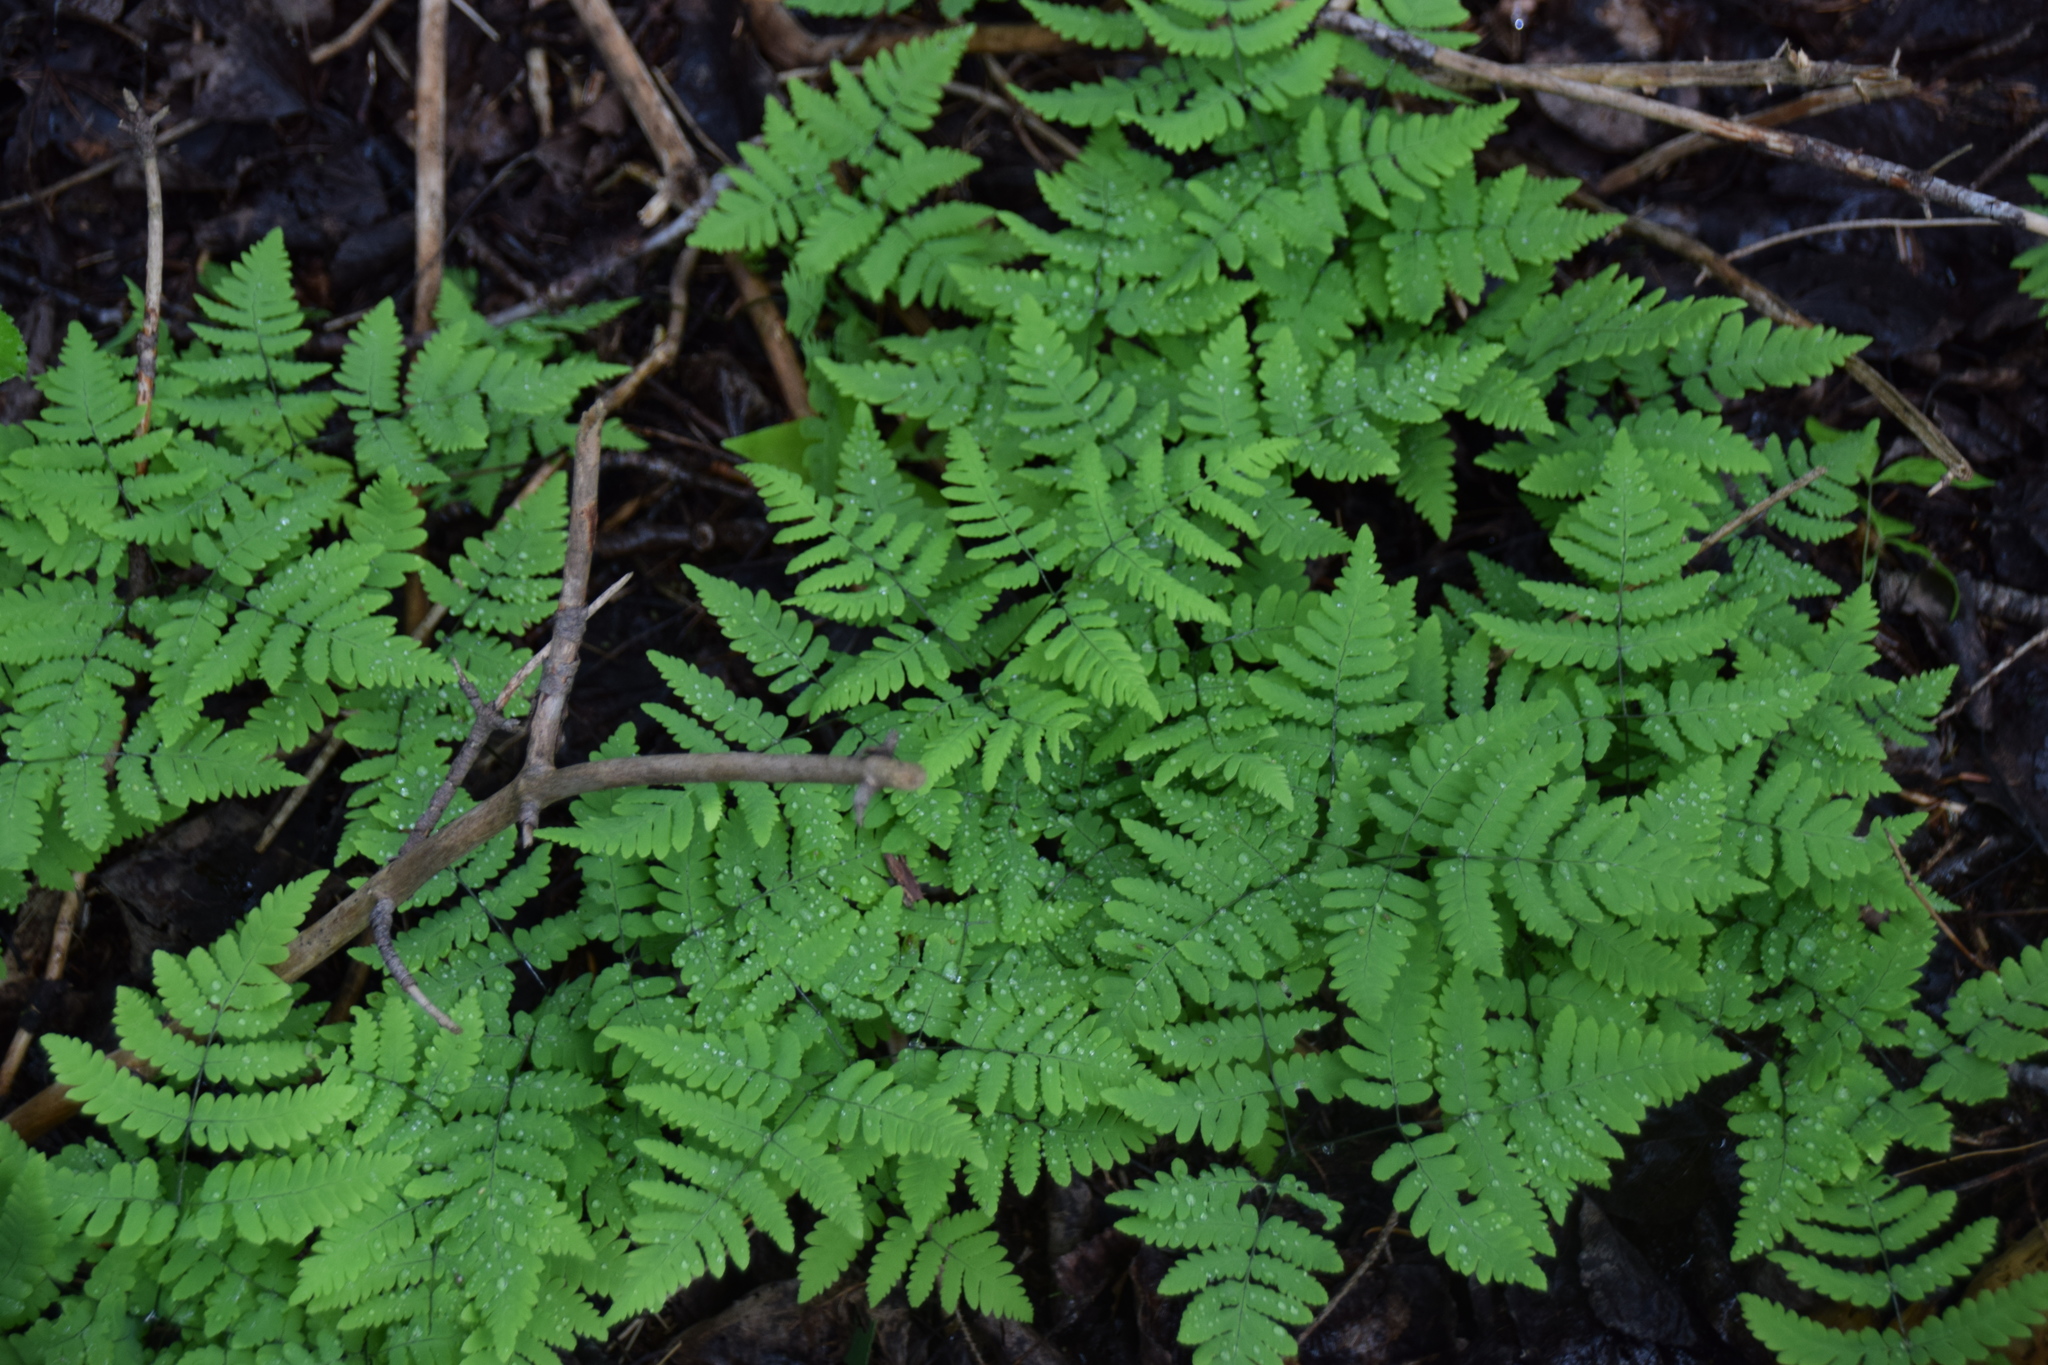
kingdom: Plantae
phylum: Tracheophyta
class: Polypodiopsida
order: Polypodiales
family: Cystopteridaceae
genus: Gymnocarpium
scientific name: Gymnocarpium dryopteris
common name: Oak fern
